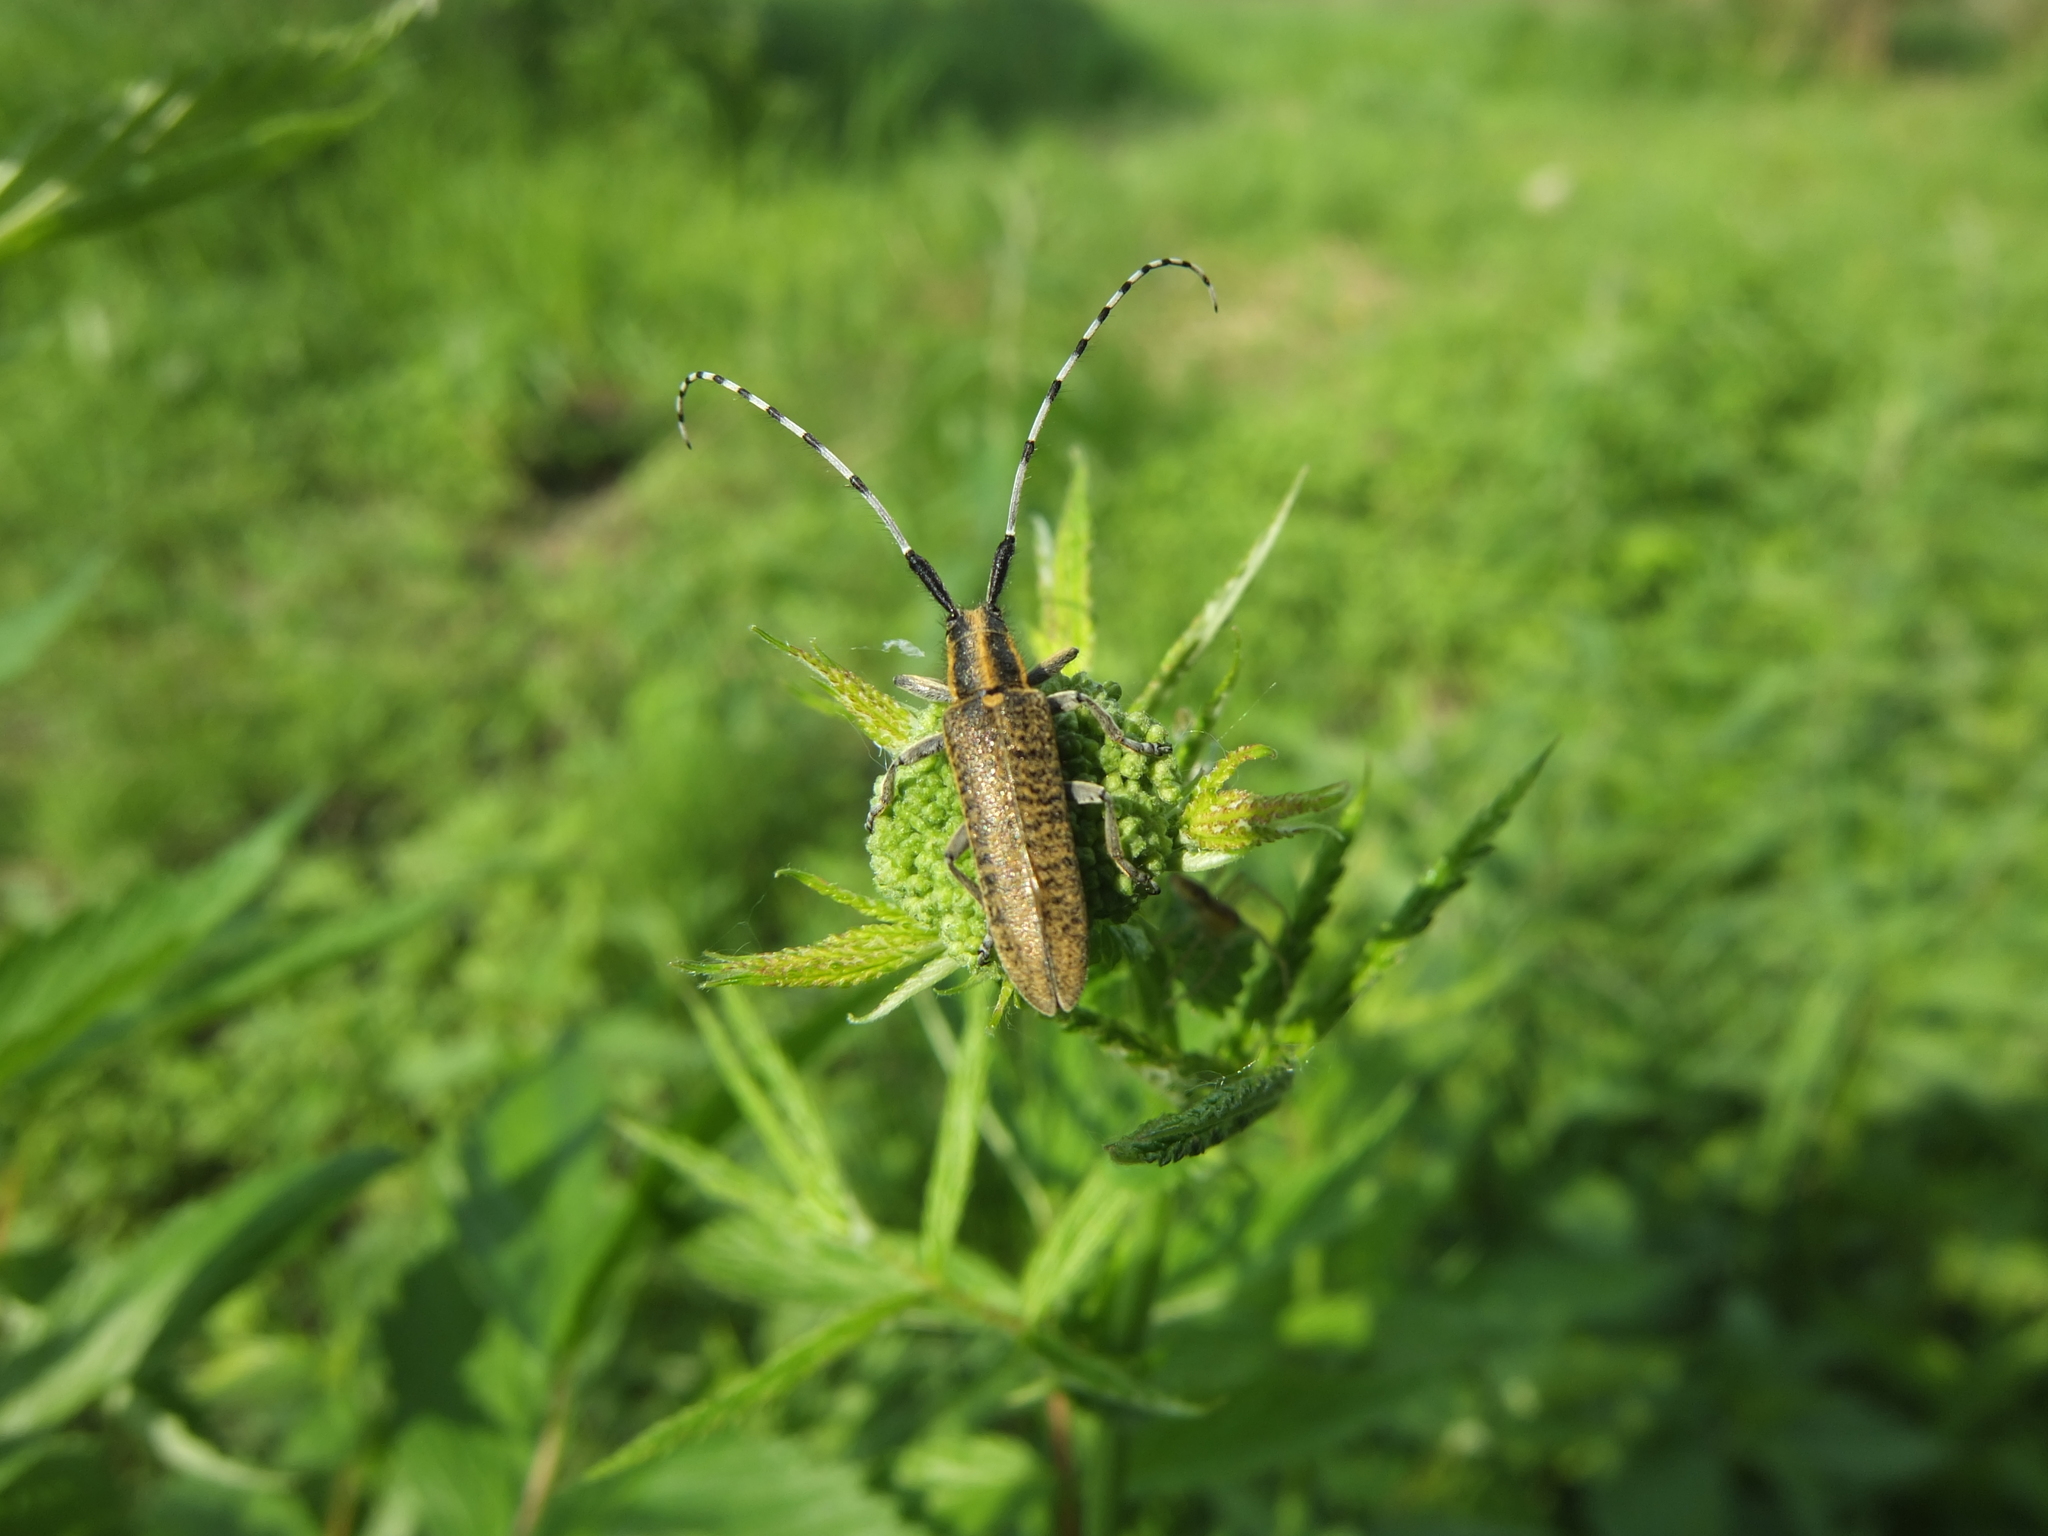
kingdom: Animalia
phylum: Arthropoda
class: Insecta
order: Coleoptera
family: Cerambycidae
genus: Agapanthia
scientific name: Agapanthia villosoviridescens
